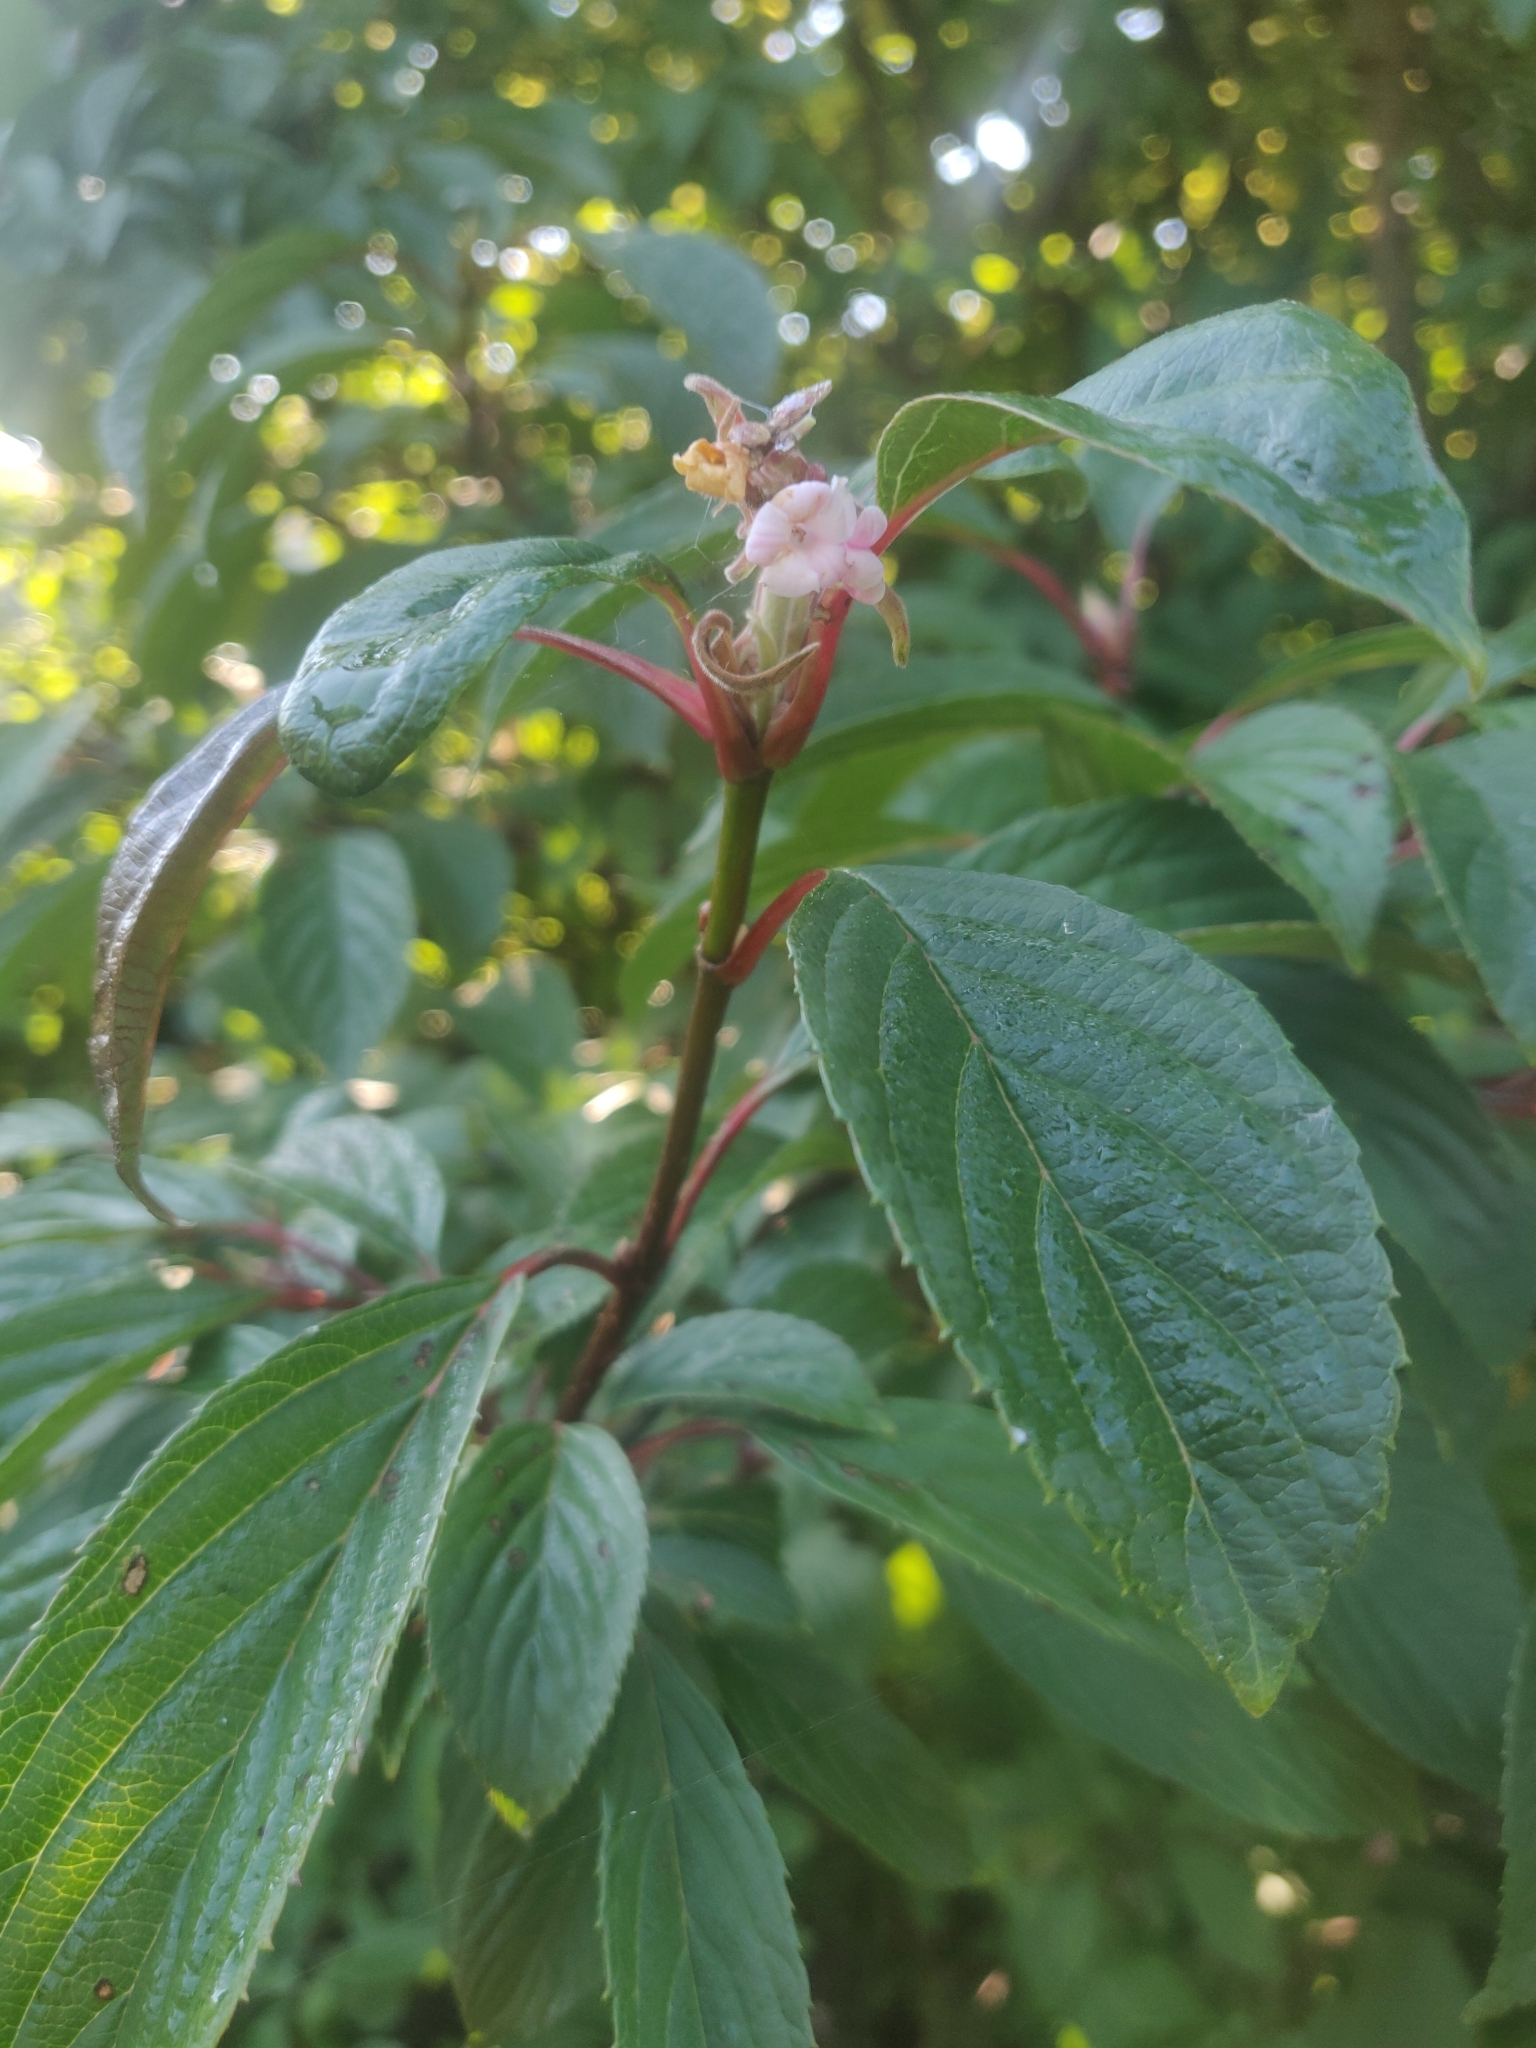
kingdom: Plantae
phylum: Tracheophyta
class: Magnoliopsida
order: Dipsacales
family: Viburnaceae
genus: Viburnum
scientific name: Viburnum bodnantense
